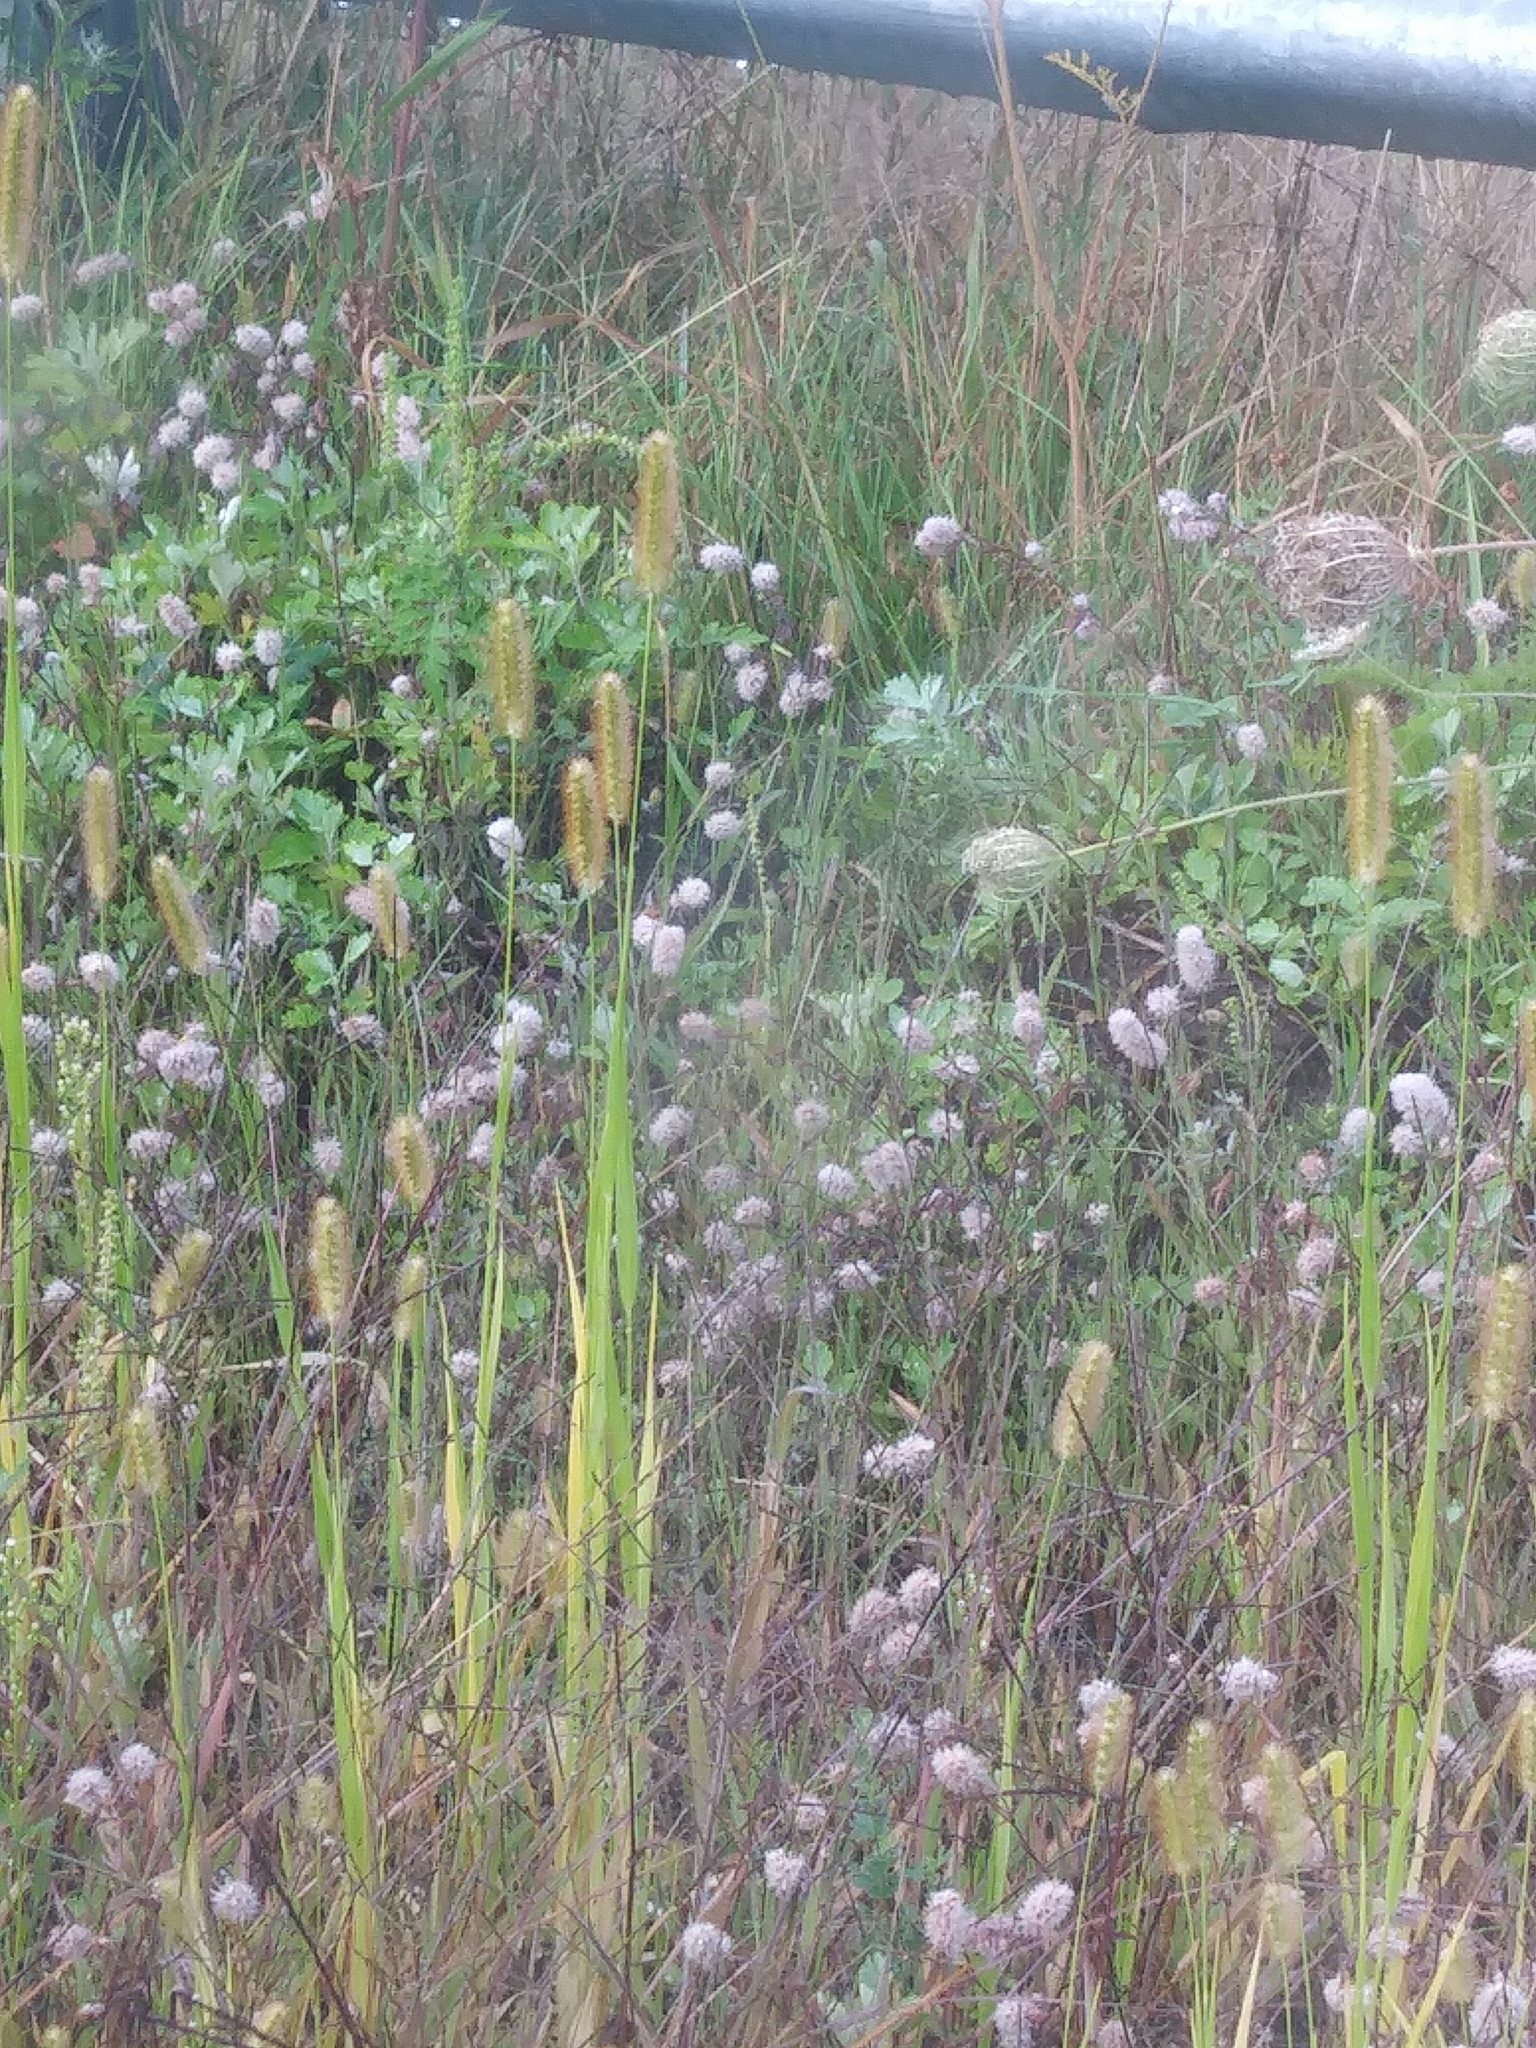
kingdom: Plantae
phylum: Tracheophyta
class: Liliopsida
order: Poales
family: Poaceae
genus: Setaria
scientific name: Setaria pumila
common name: Yellow bristle-grass
